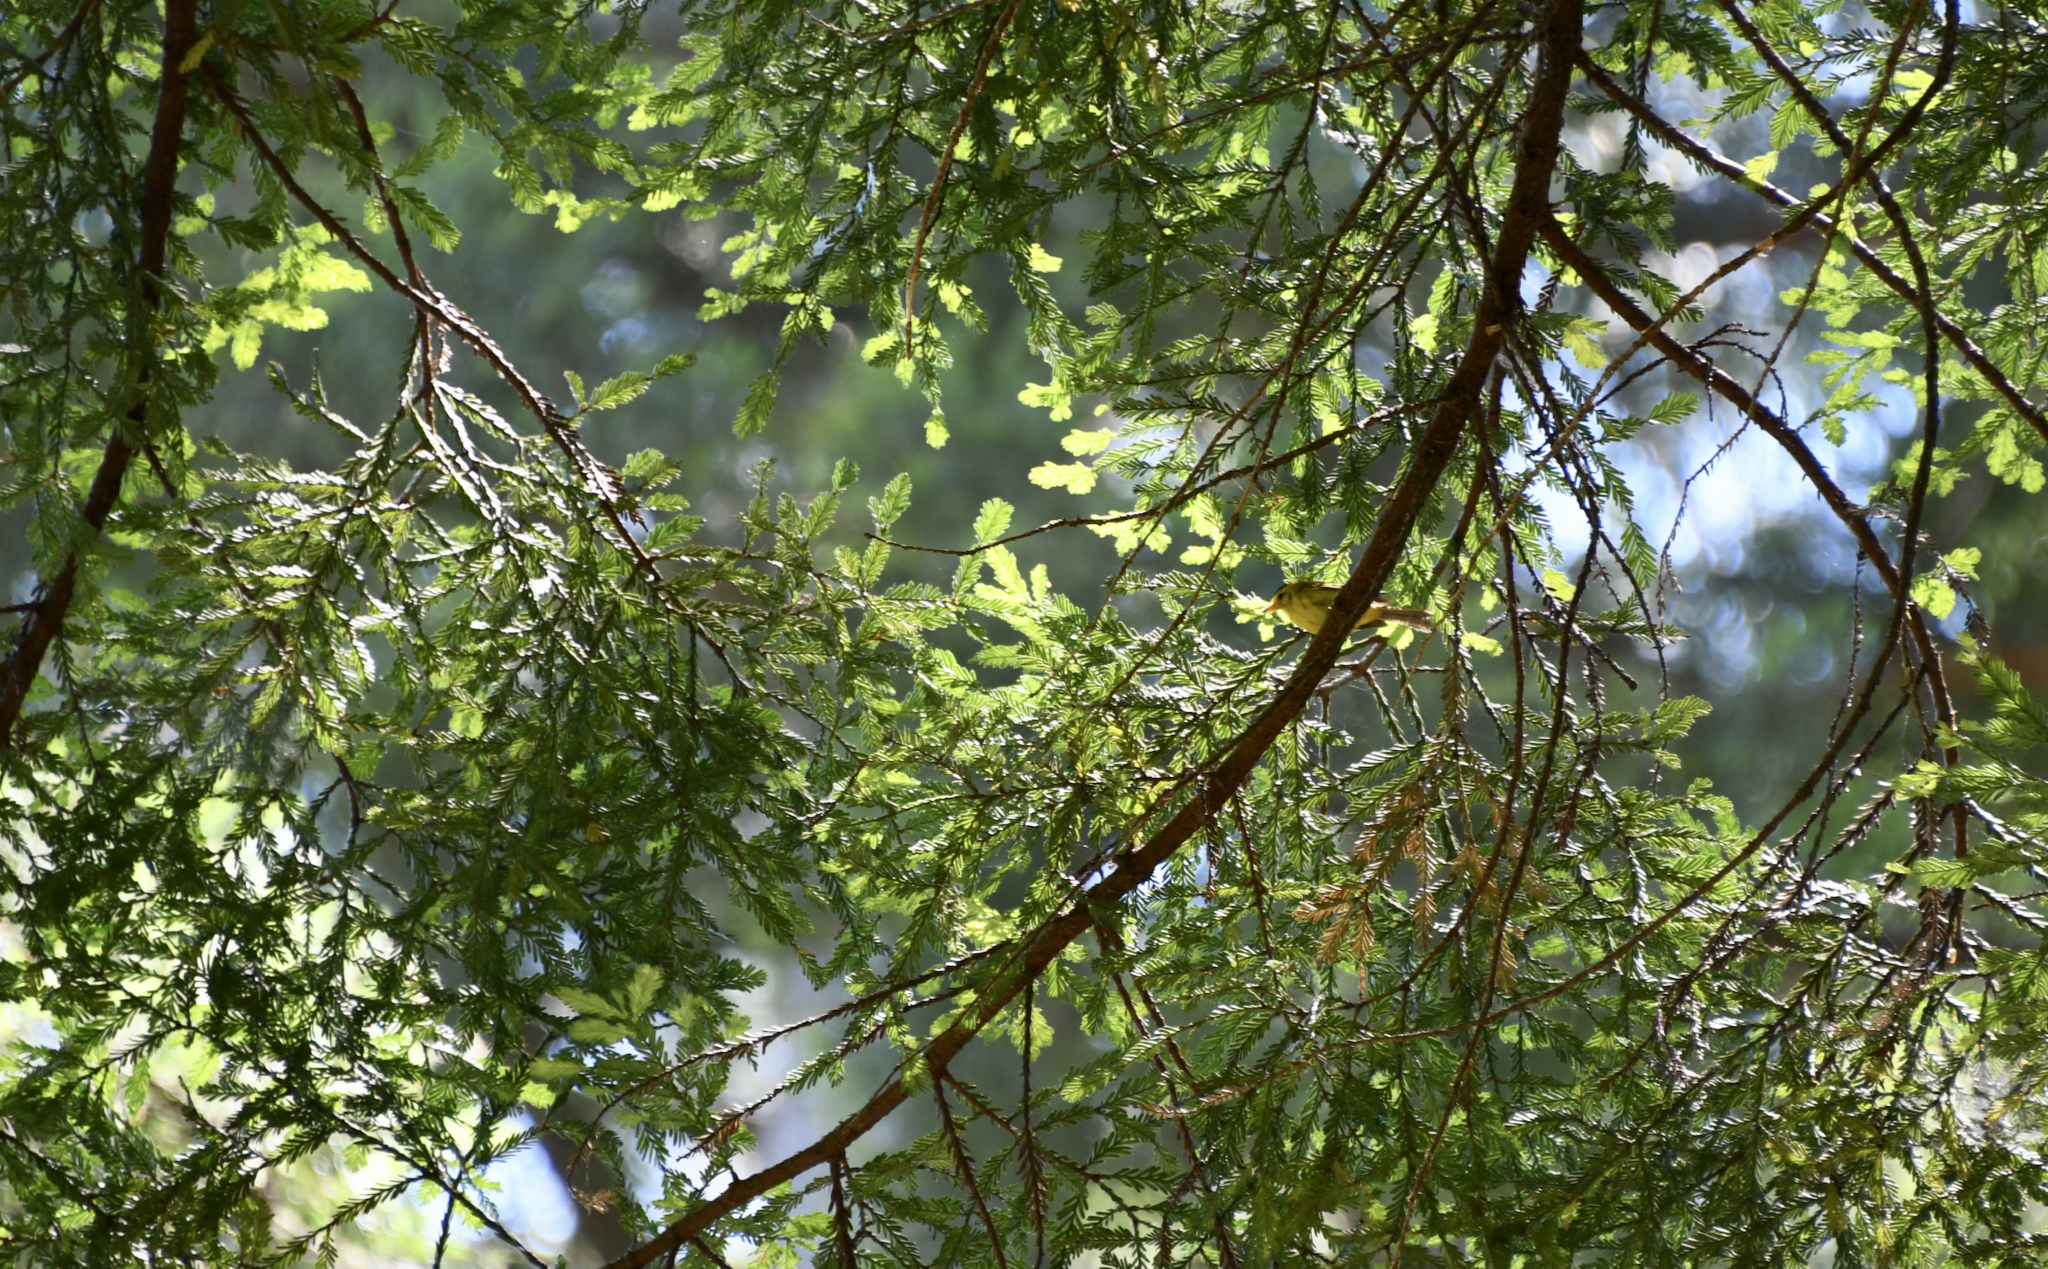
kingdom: Animalia
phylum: Chordata
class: Aves
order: Passeriformes
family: Parulidae
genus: Cardellina
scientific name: Cardellina pusilla
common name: Wilson's warbler
